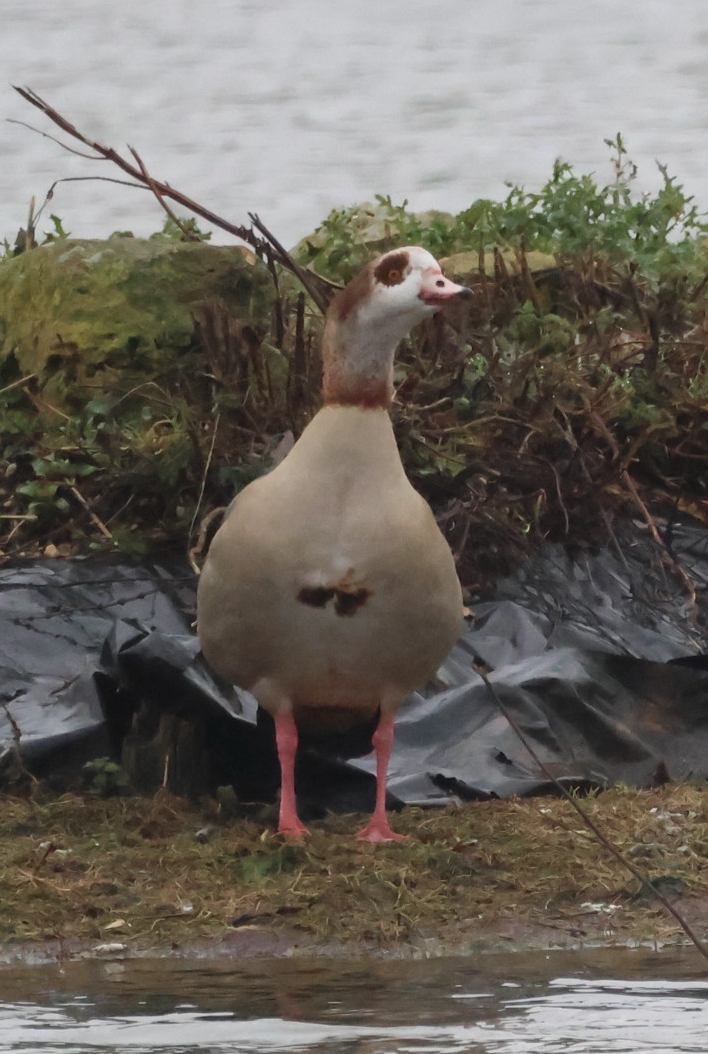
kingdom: Animalia
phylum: Chordata
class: Aves
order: Anseriformes
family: Anatidae
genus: Alopochen
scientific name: Alopochen aegyptiaca
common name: Egyptian goose
